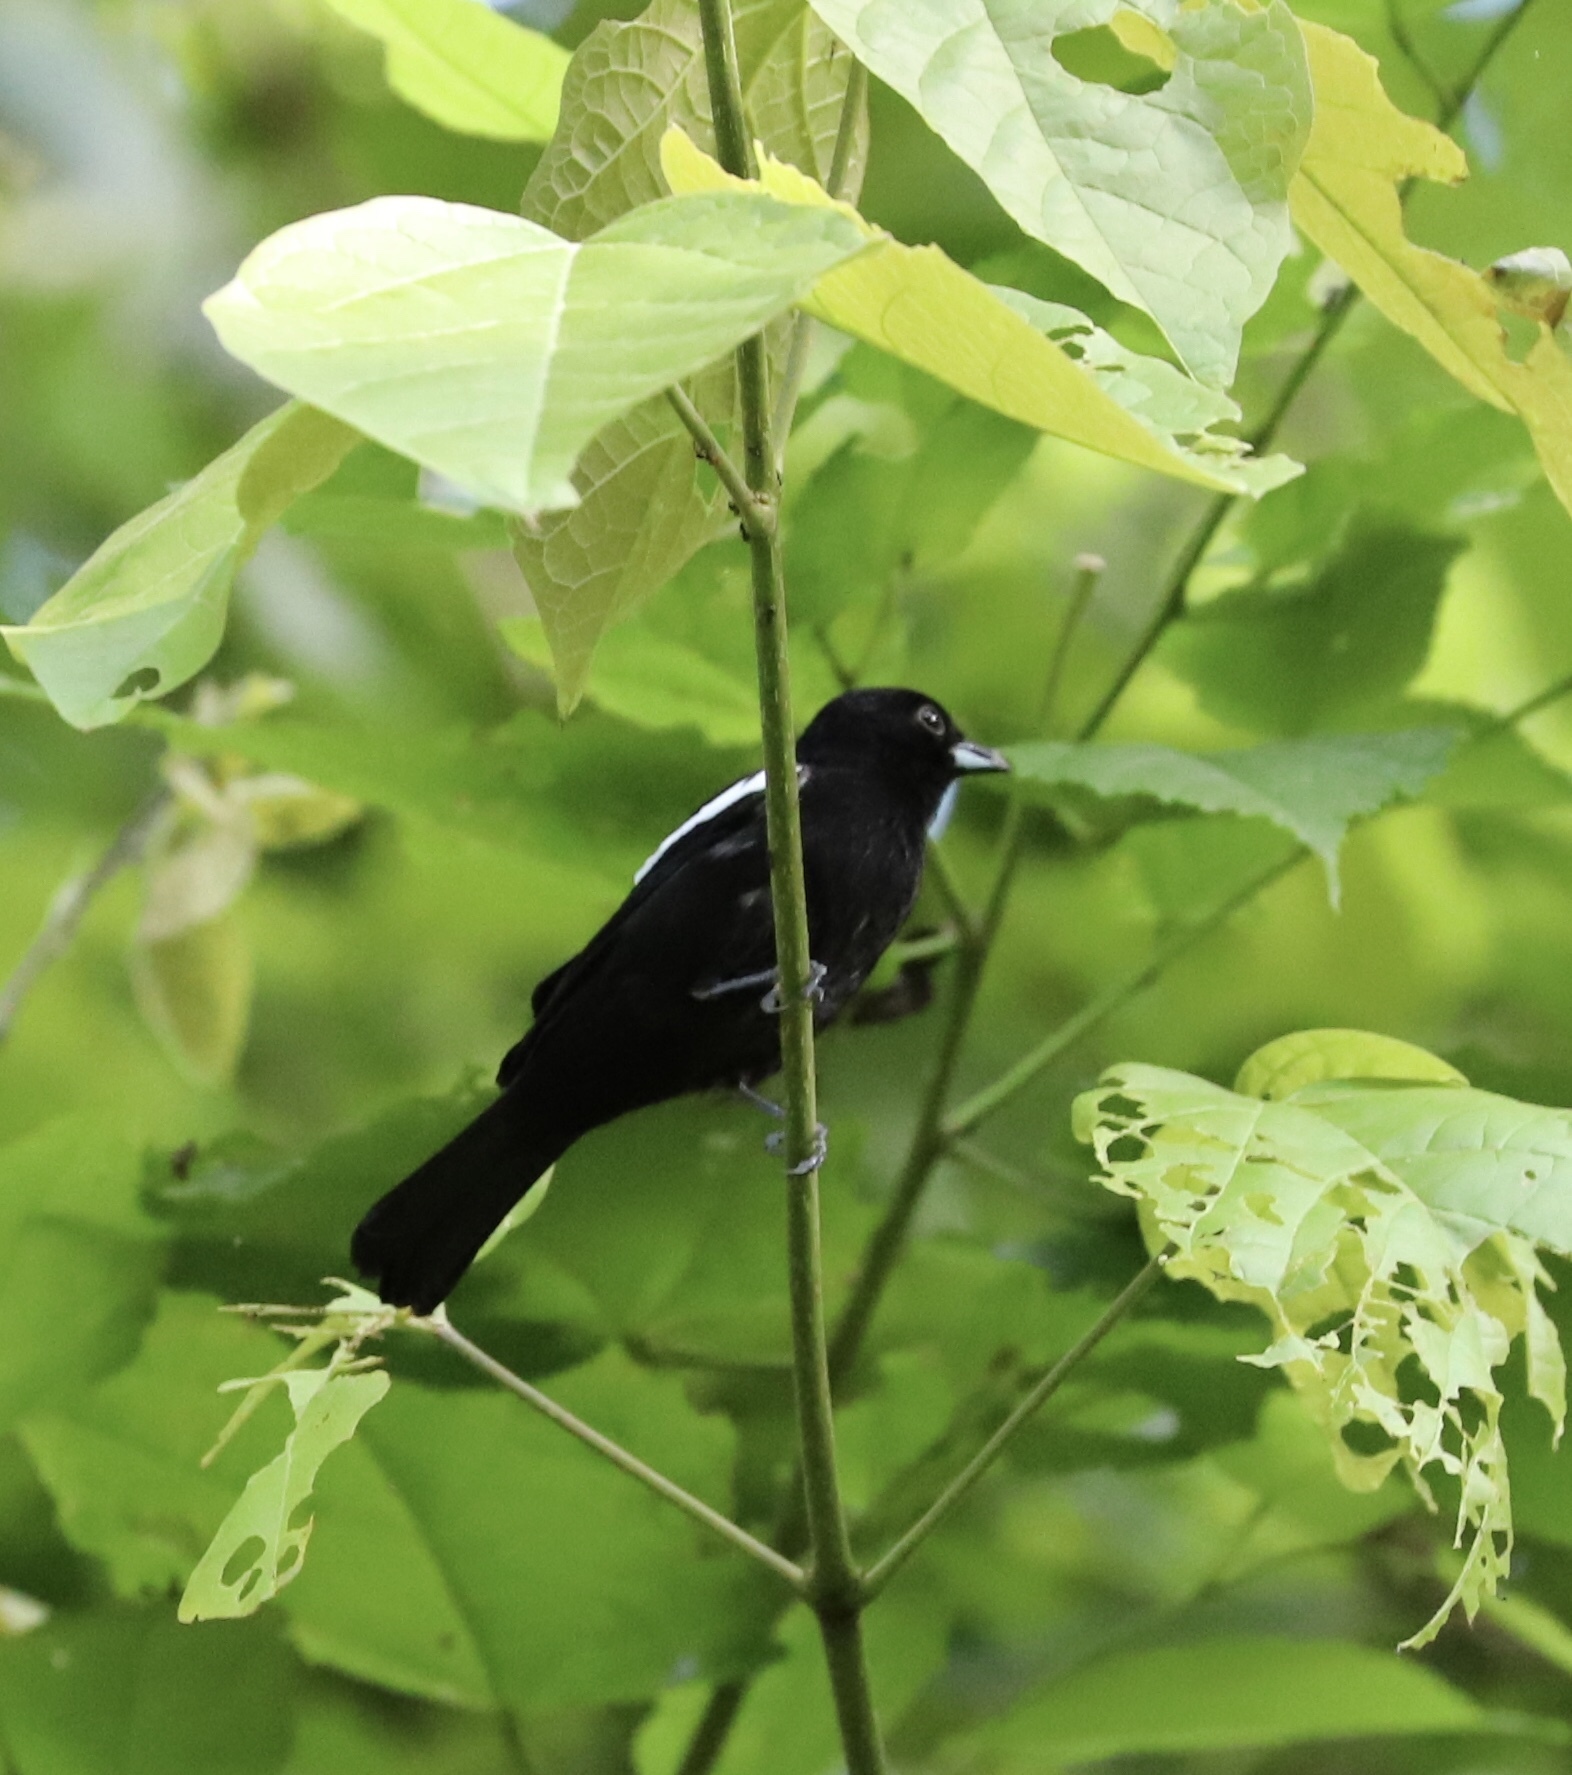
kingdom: Animalia
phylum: Chordata
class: Aves
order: Passeriformes
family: Thraupidae
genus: Loriotus
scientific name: Loriotus luctuosus
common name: White-shouldered tanager
